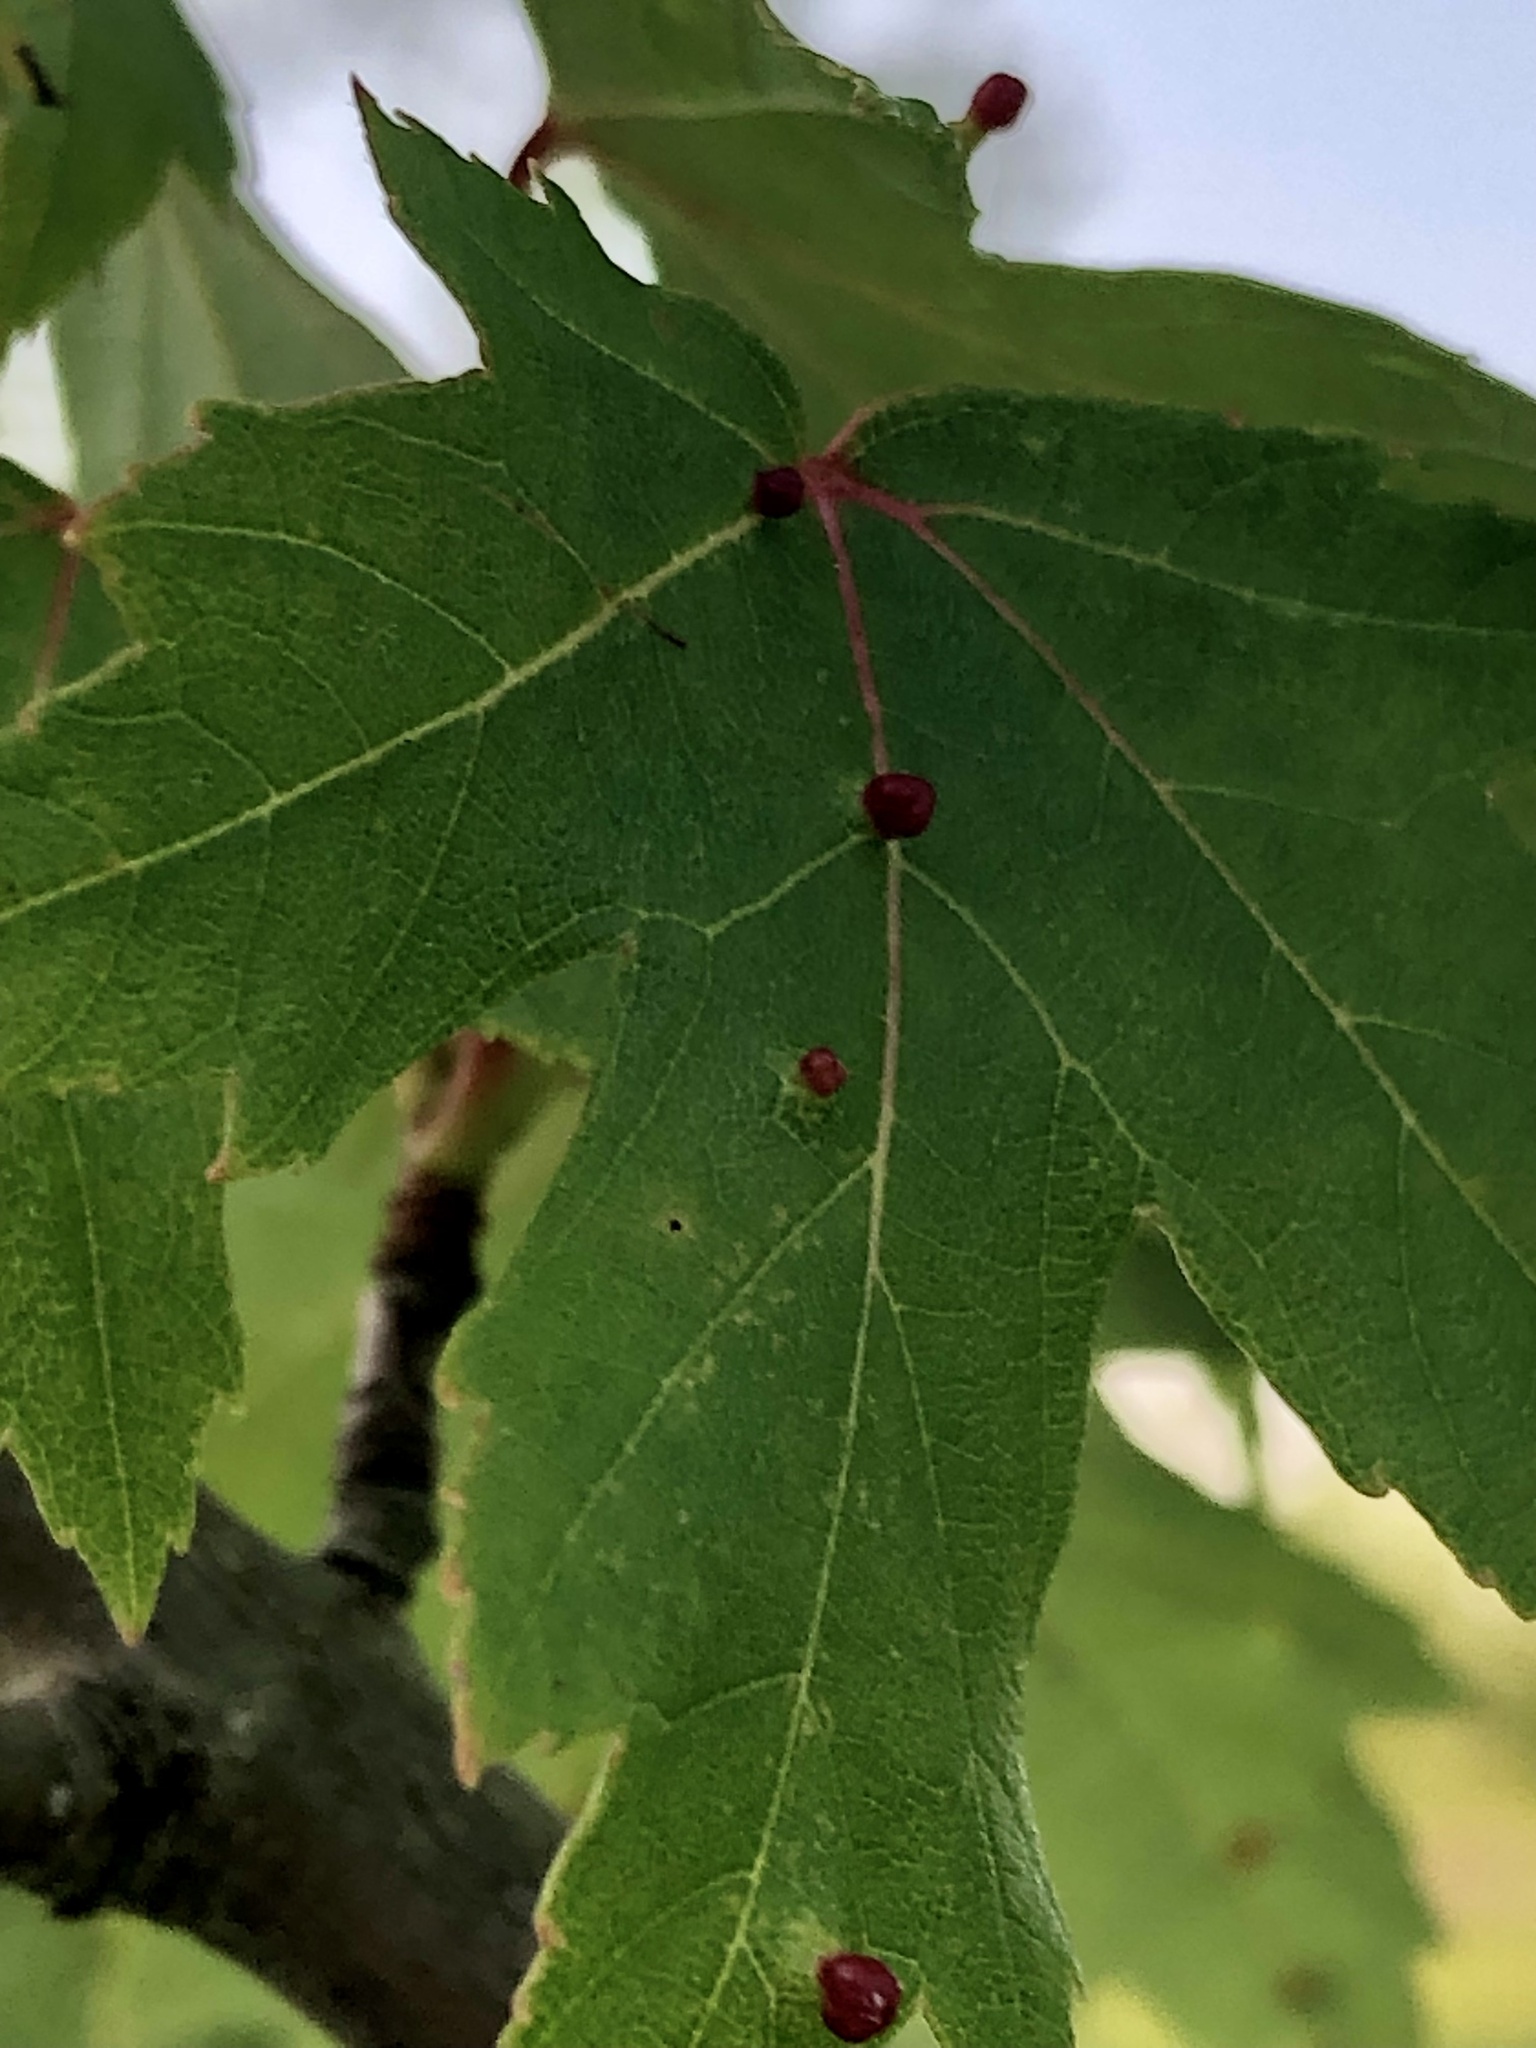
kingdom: Animalia
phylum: Arthropoda
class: Arachnida
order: Trombidiformes
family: Eriophyidae
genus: Vasates
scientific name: Vasates quadripedes
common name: Maple bladder gall mite
